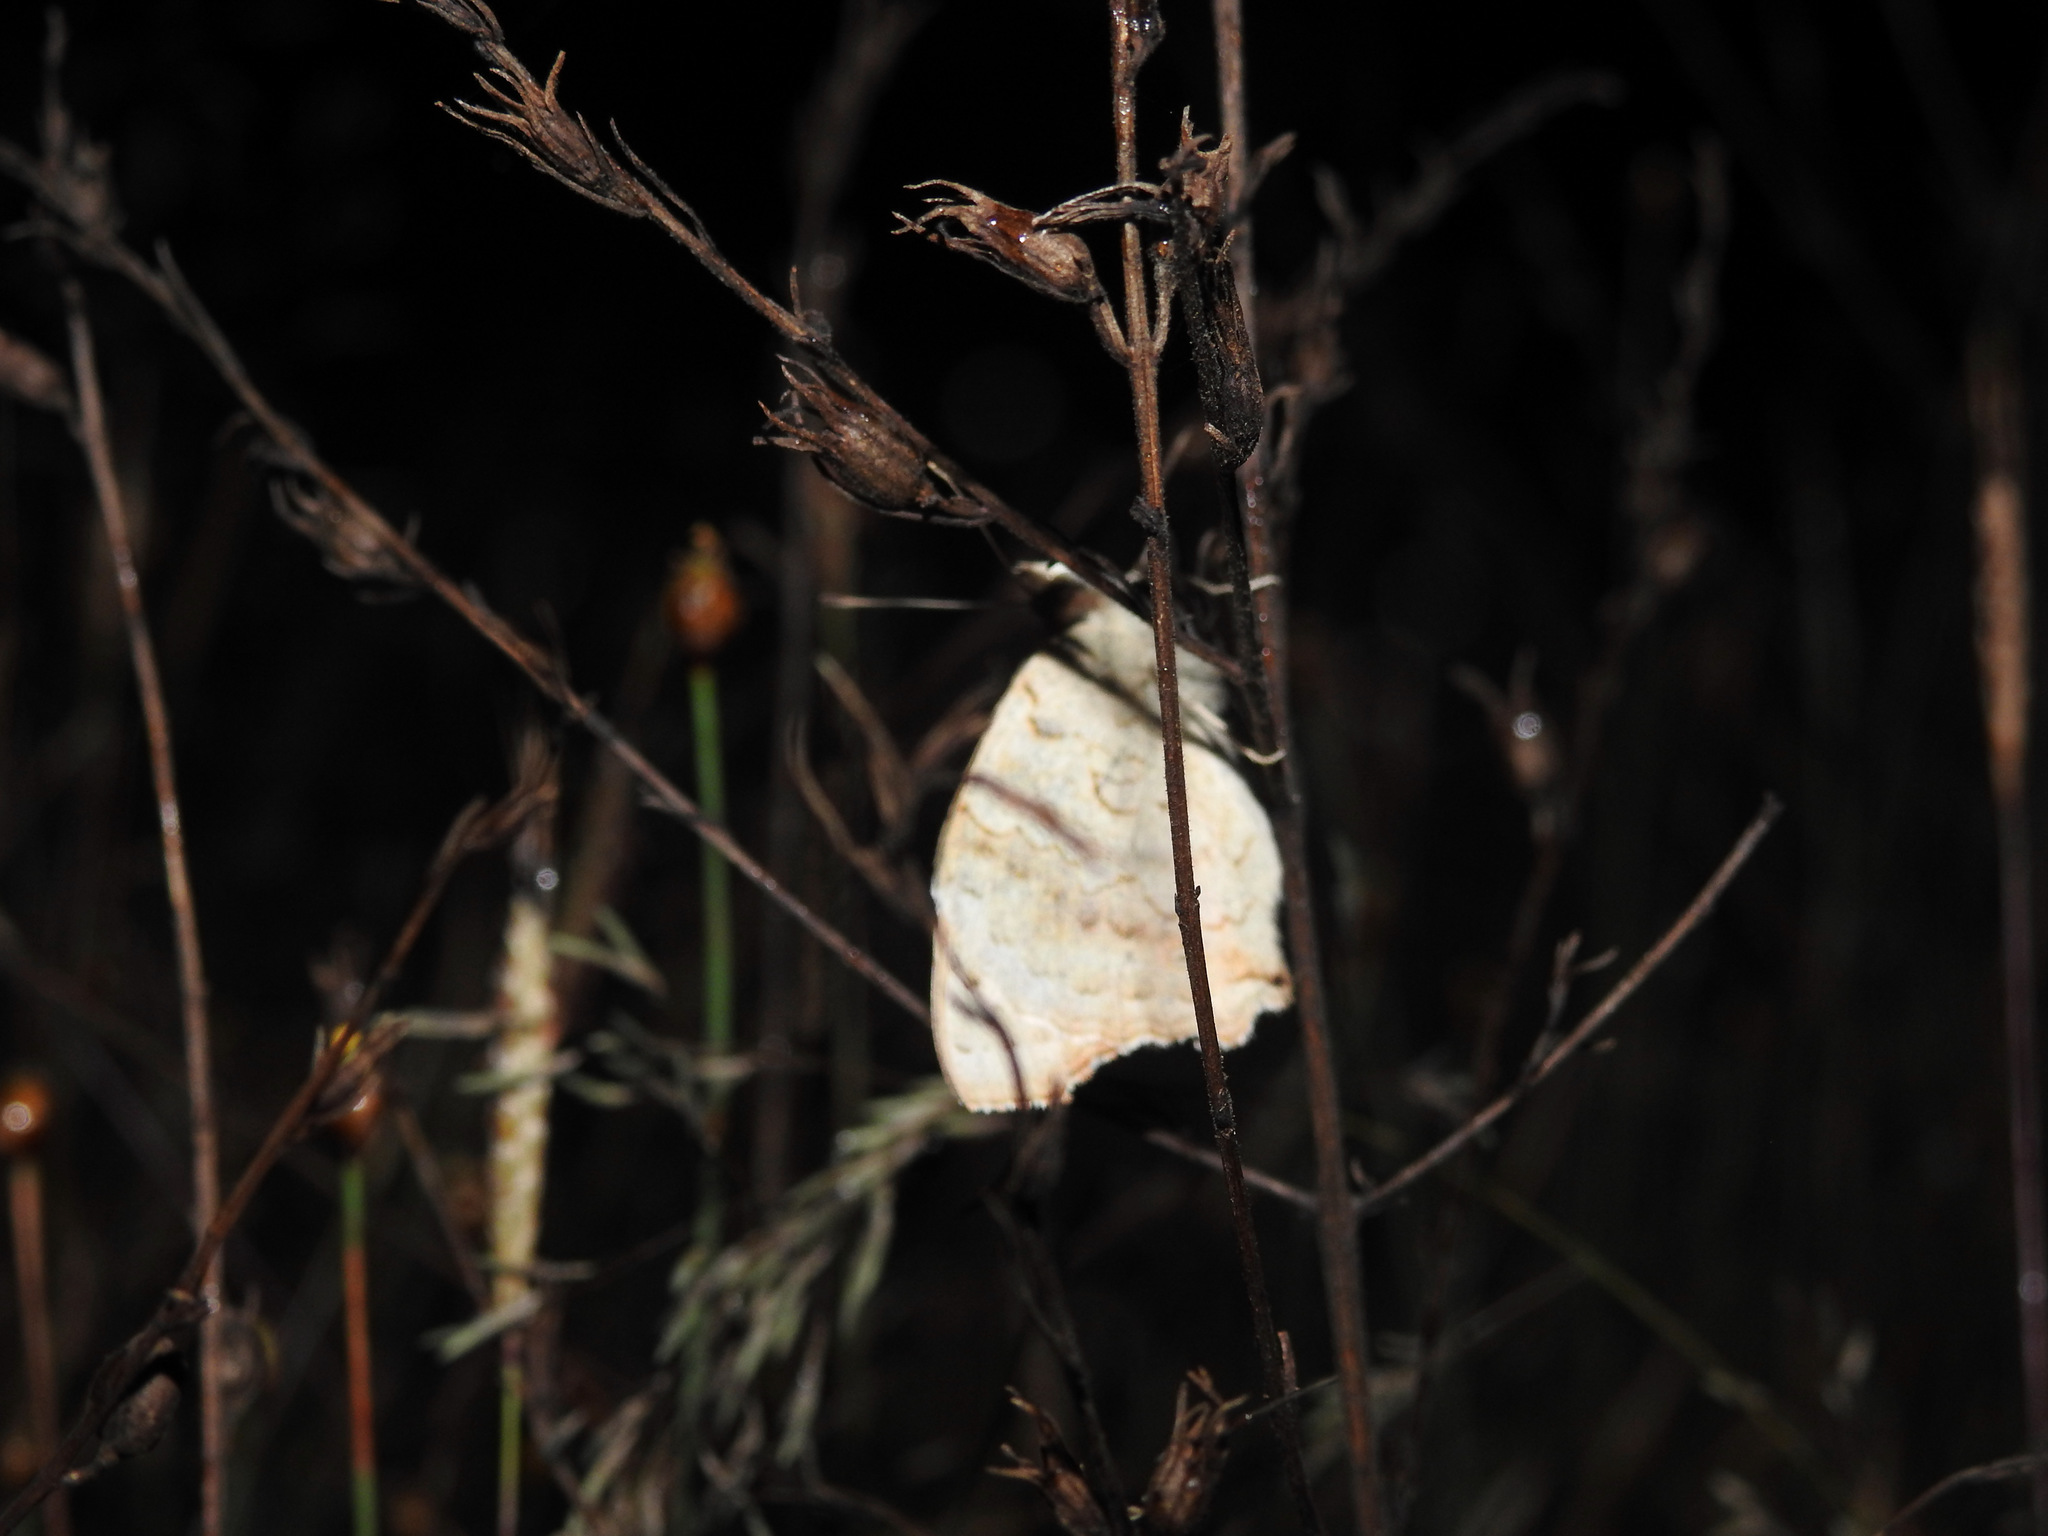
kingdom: Animalia
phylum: Arthropoda
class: Insecta
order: Lepidoptera
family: Nymphalidae
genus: Junonia
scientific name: Junonia orithya
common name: Blue pansy
